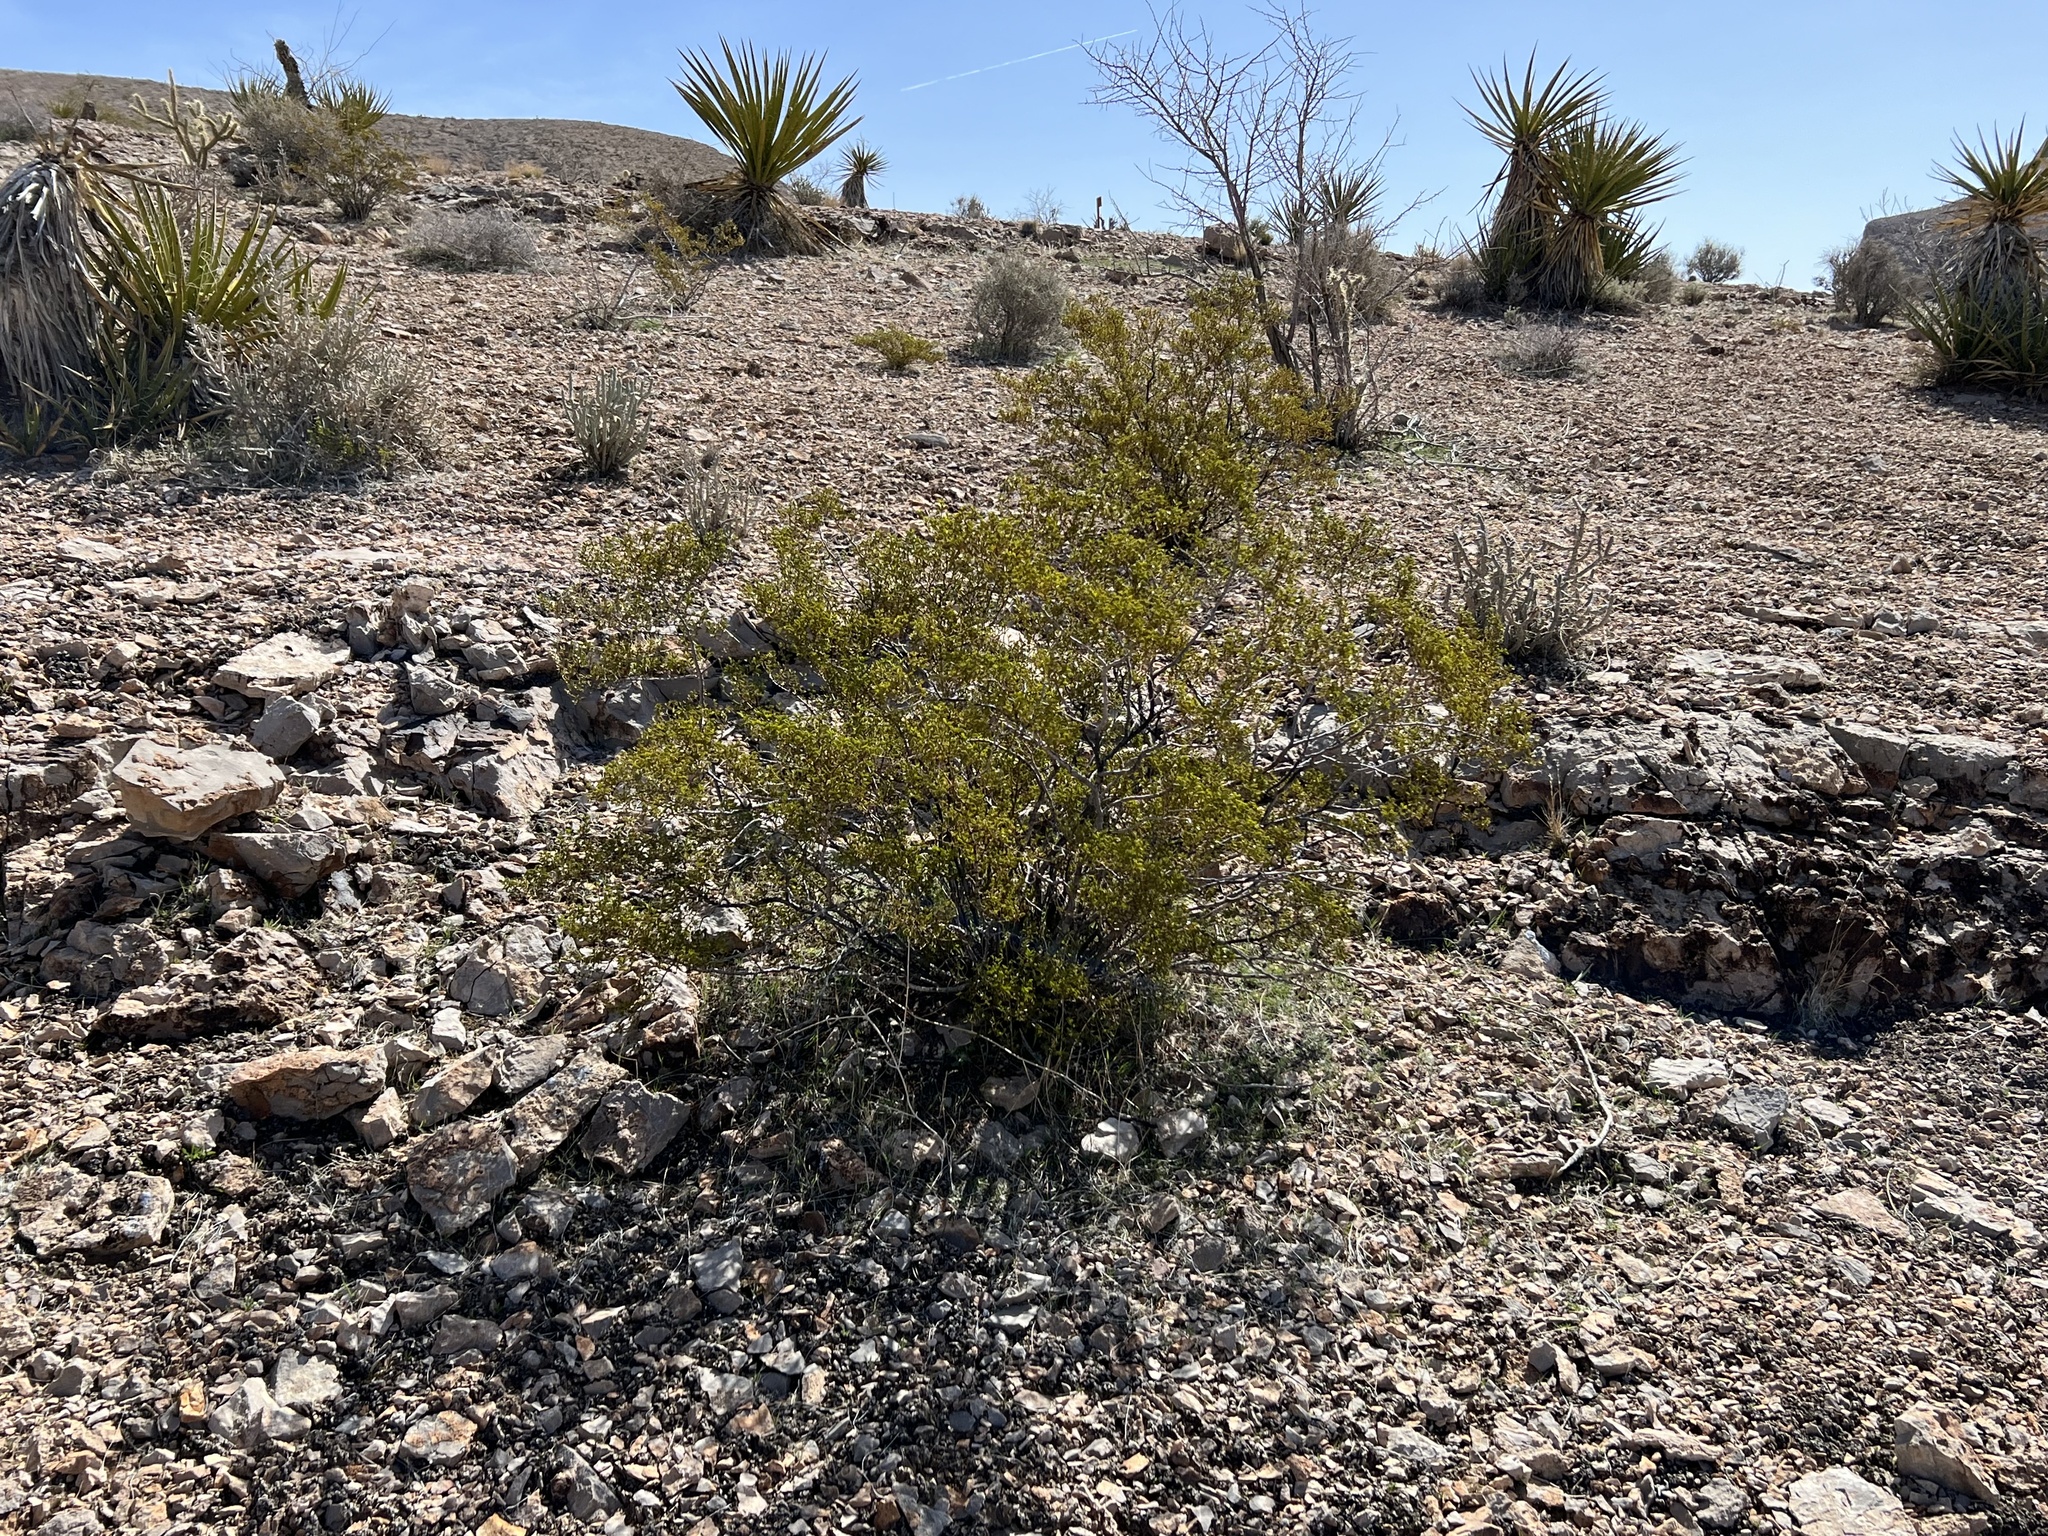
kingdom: Plantae
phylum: Tracheophyta
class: Magnoliopsida
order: Zygophyllales
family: Zygophyllaceae
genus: Larrea
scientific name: Larrea tridentata
